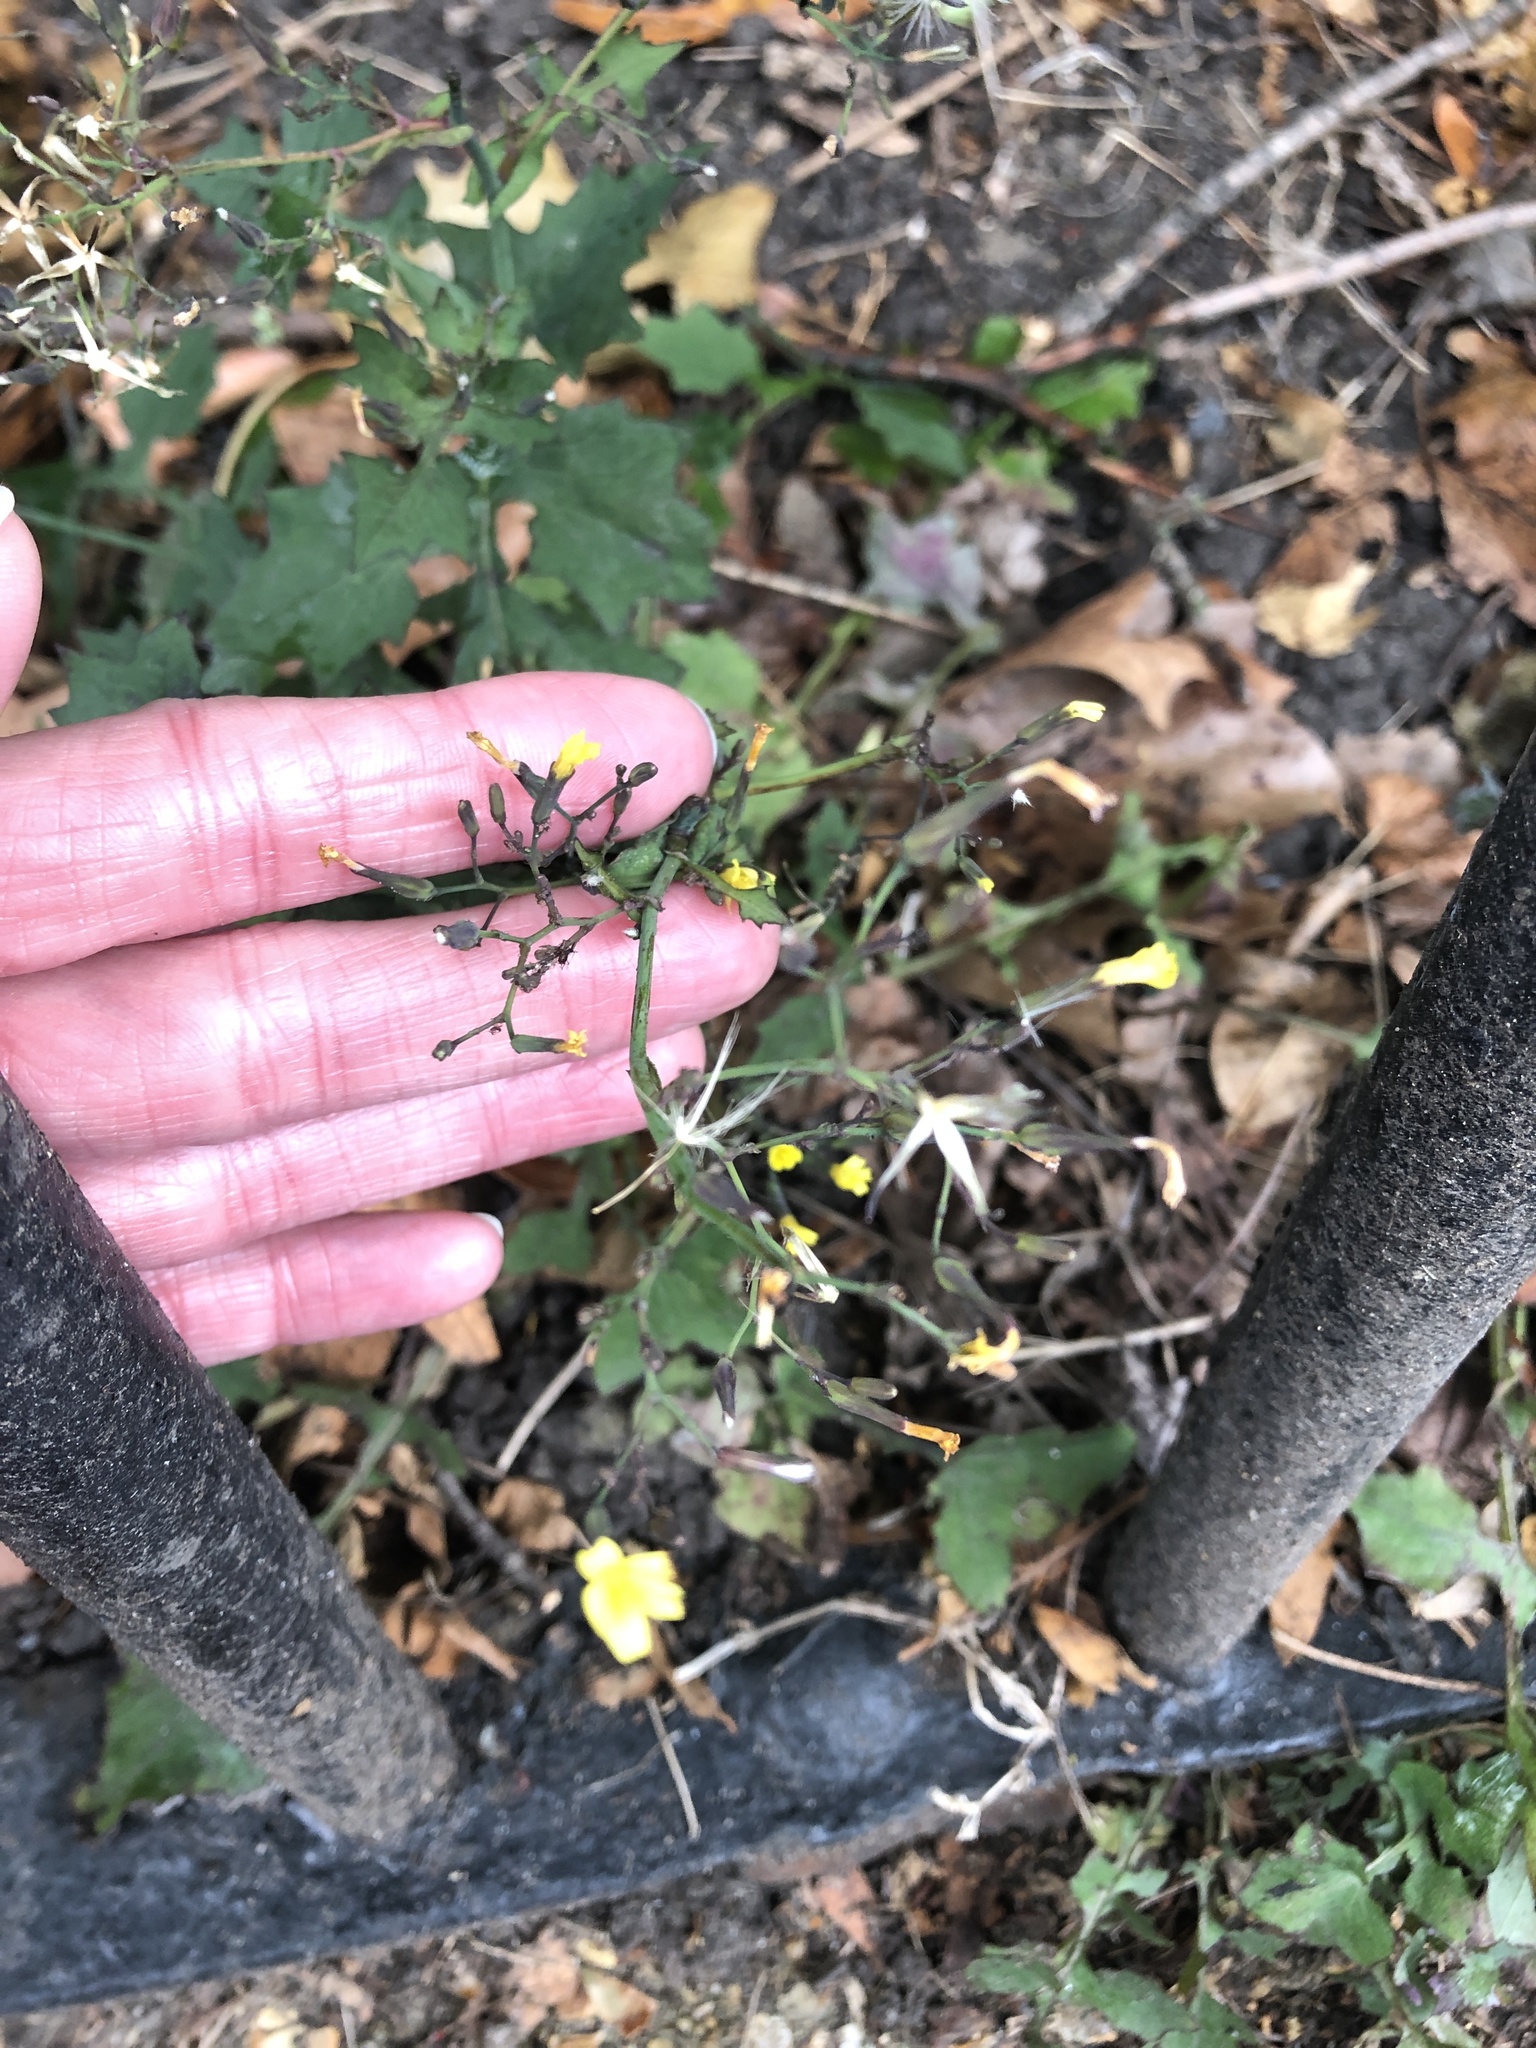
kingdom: Plantae
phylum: Tracheophyta
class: Magnoliopsida
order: Asterales
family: Asteraceae
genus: Mycelis
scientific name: Mycelis muralis
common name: Wall lettuce
